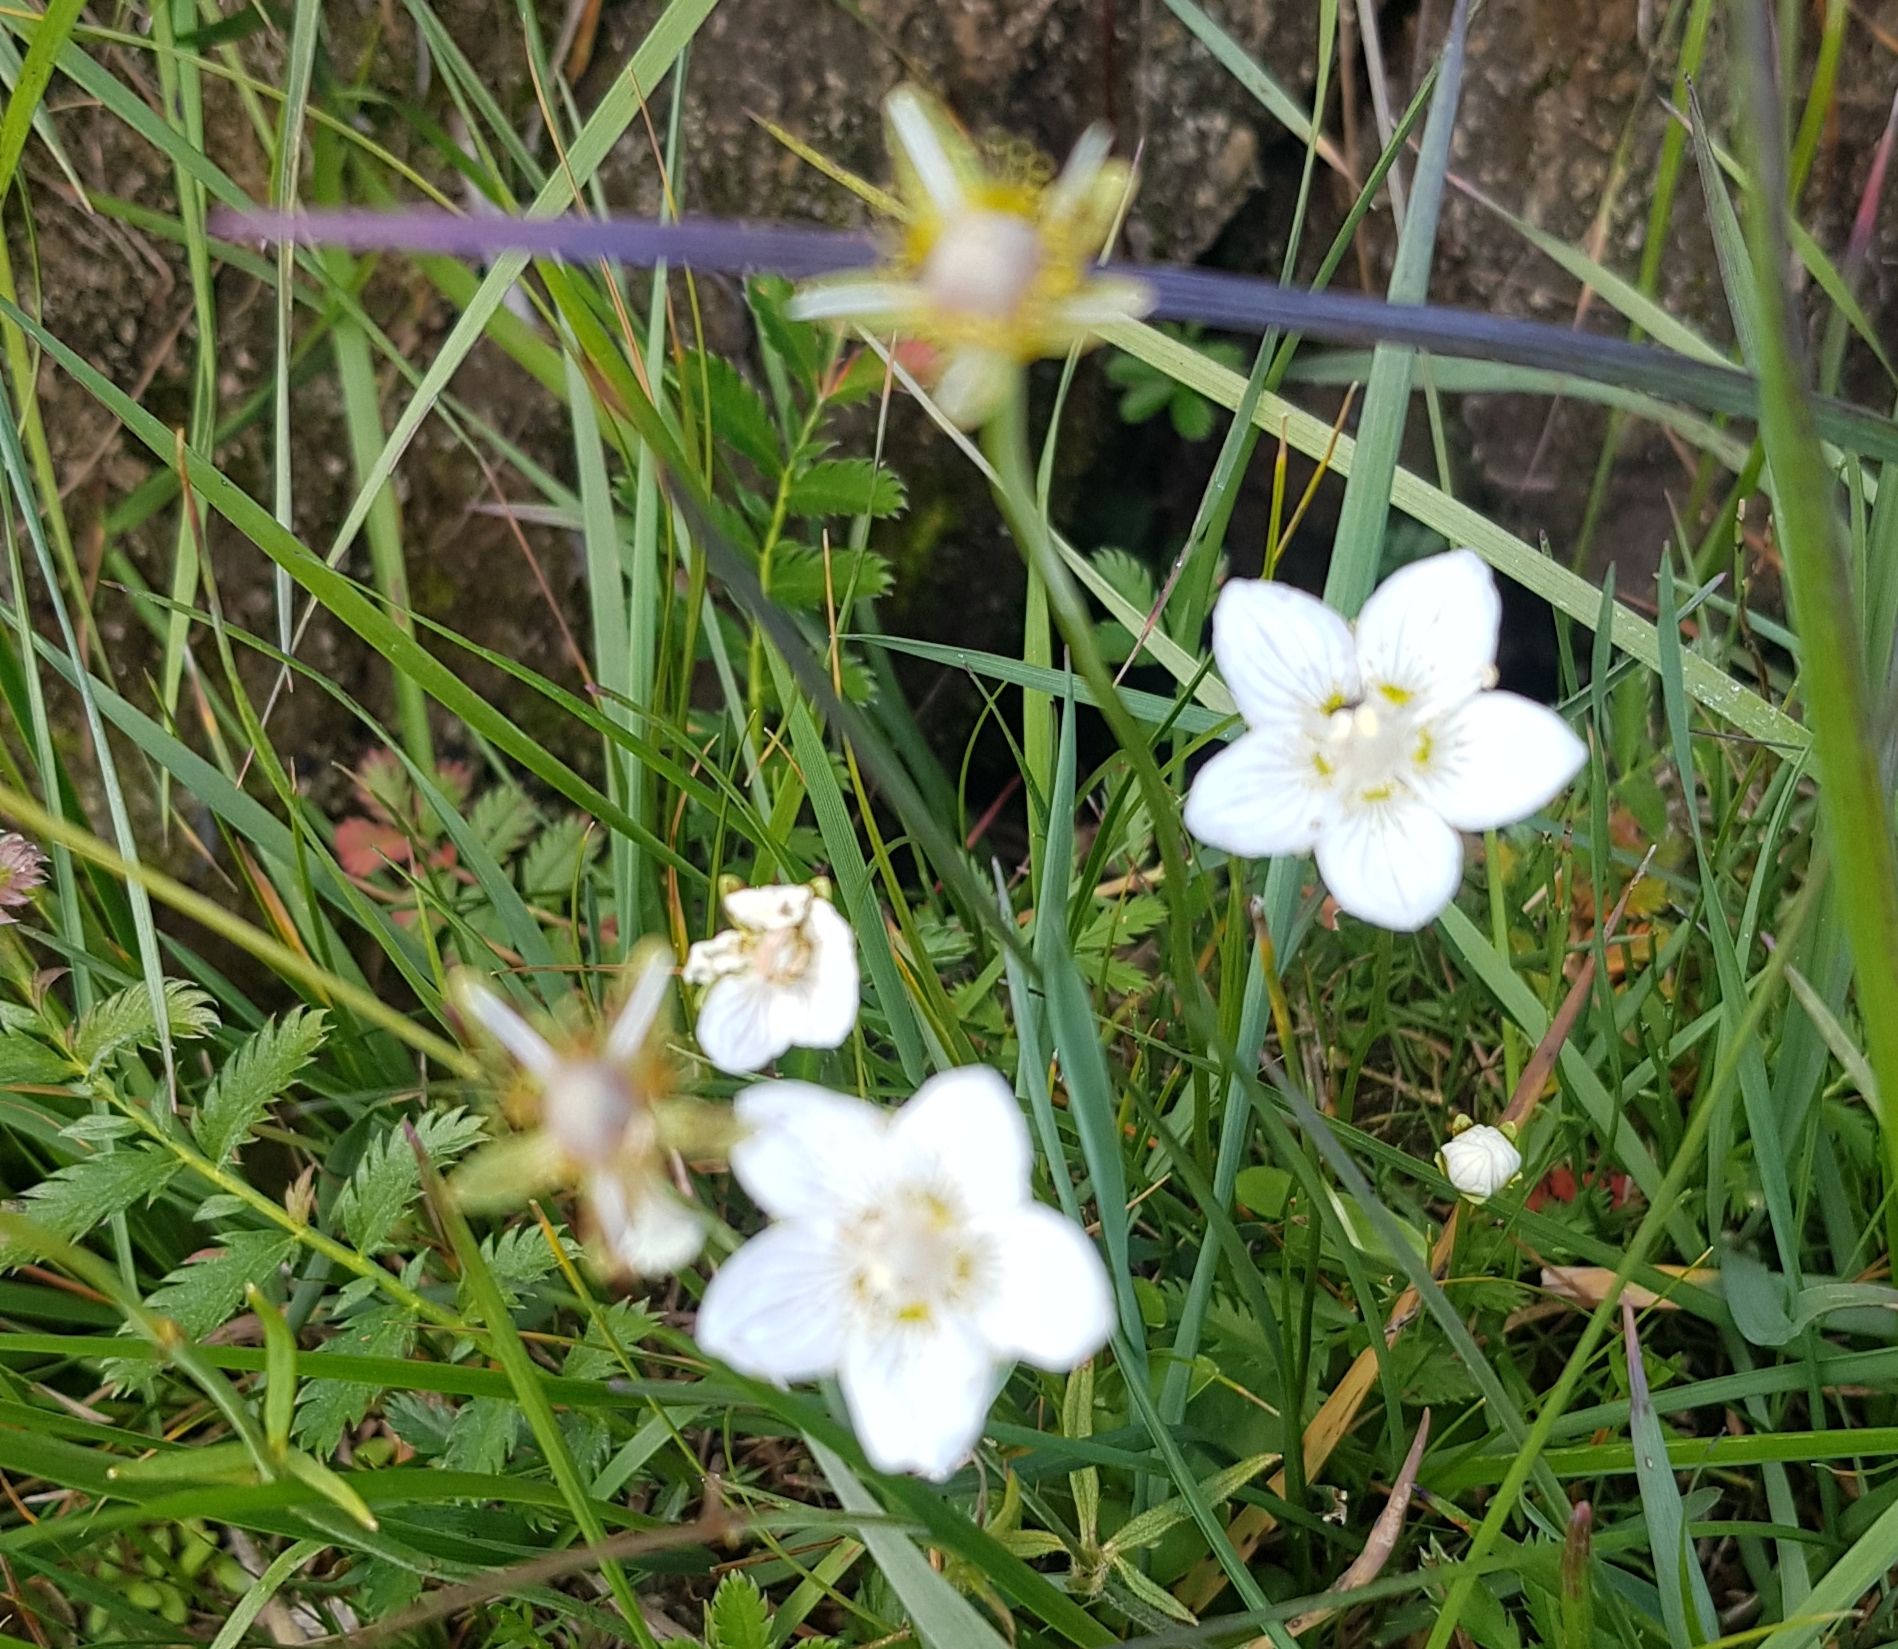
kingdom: Plantae
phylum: Tracheophyta
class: Magnoliopsida
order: Celastrales
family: Parnassiaceae
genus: Parnassia
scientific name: Parnassia palustris
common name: Grass-of-parnassus
